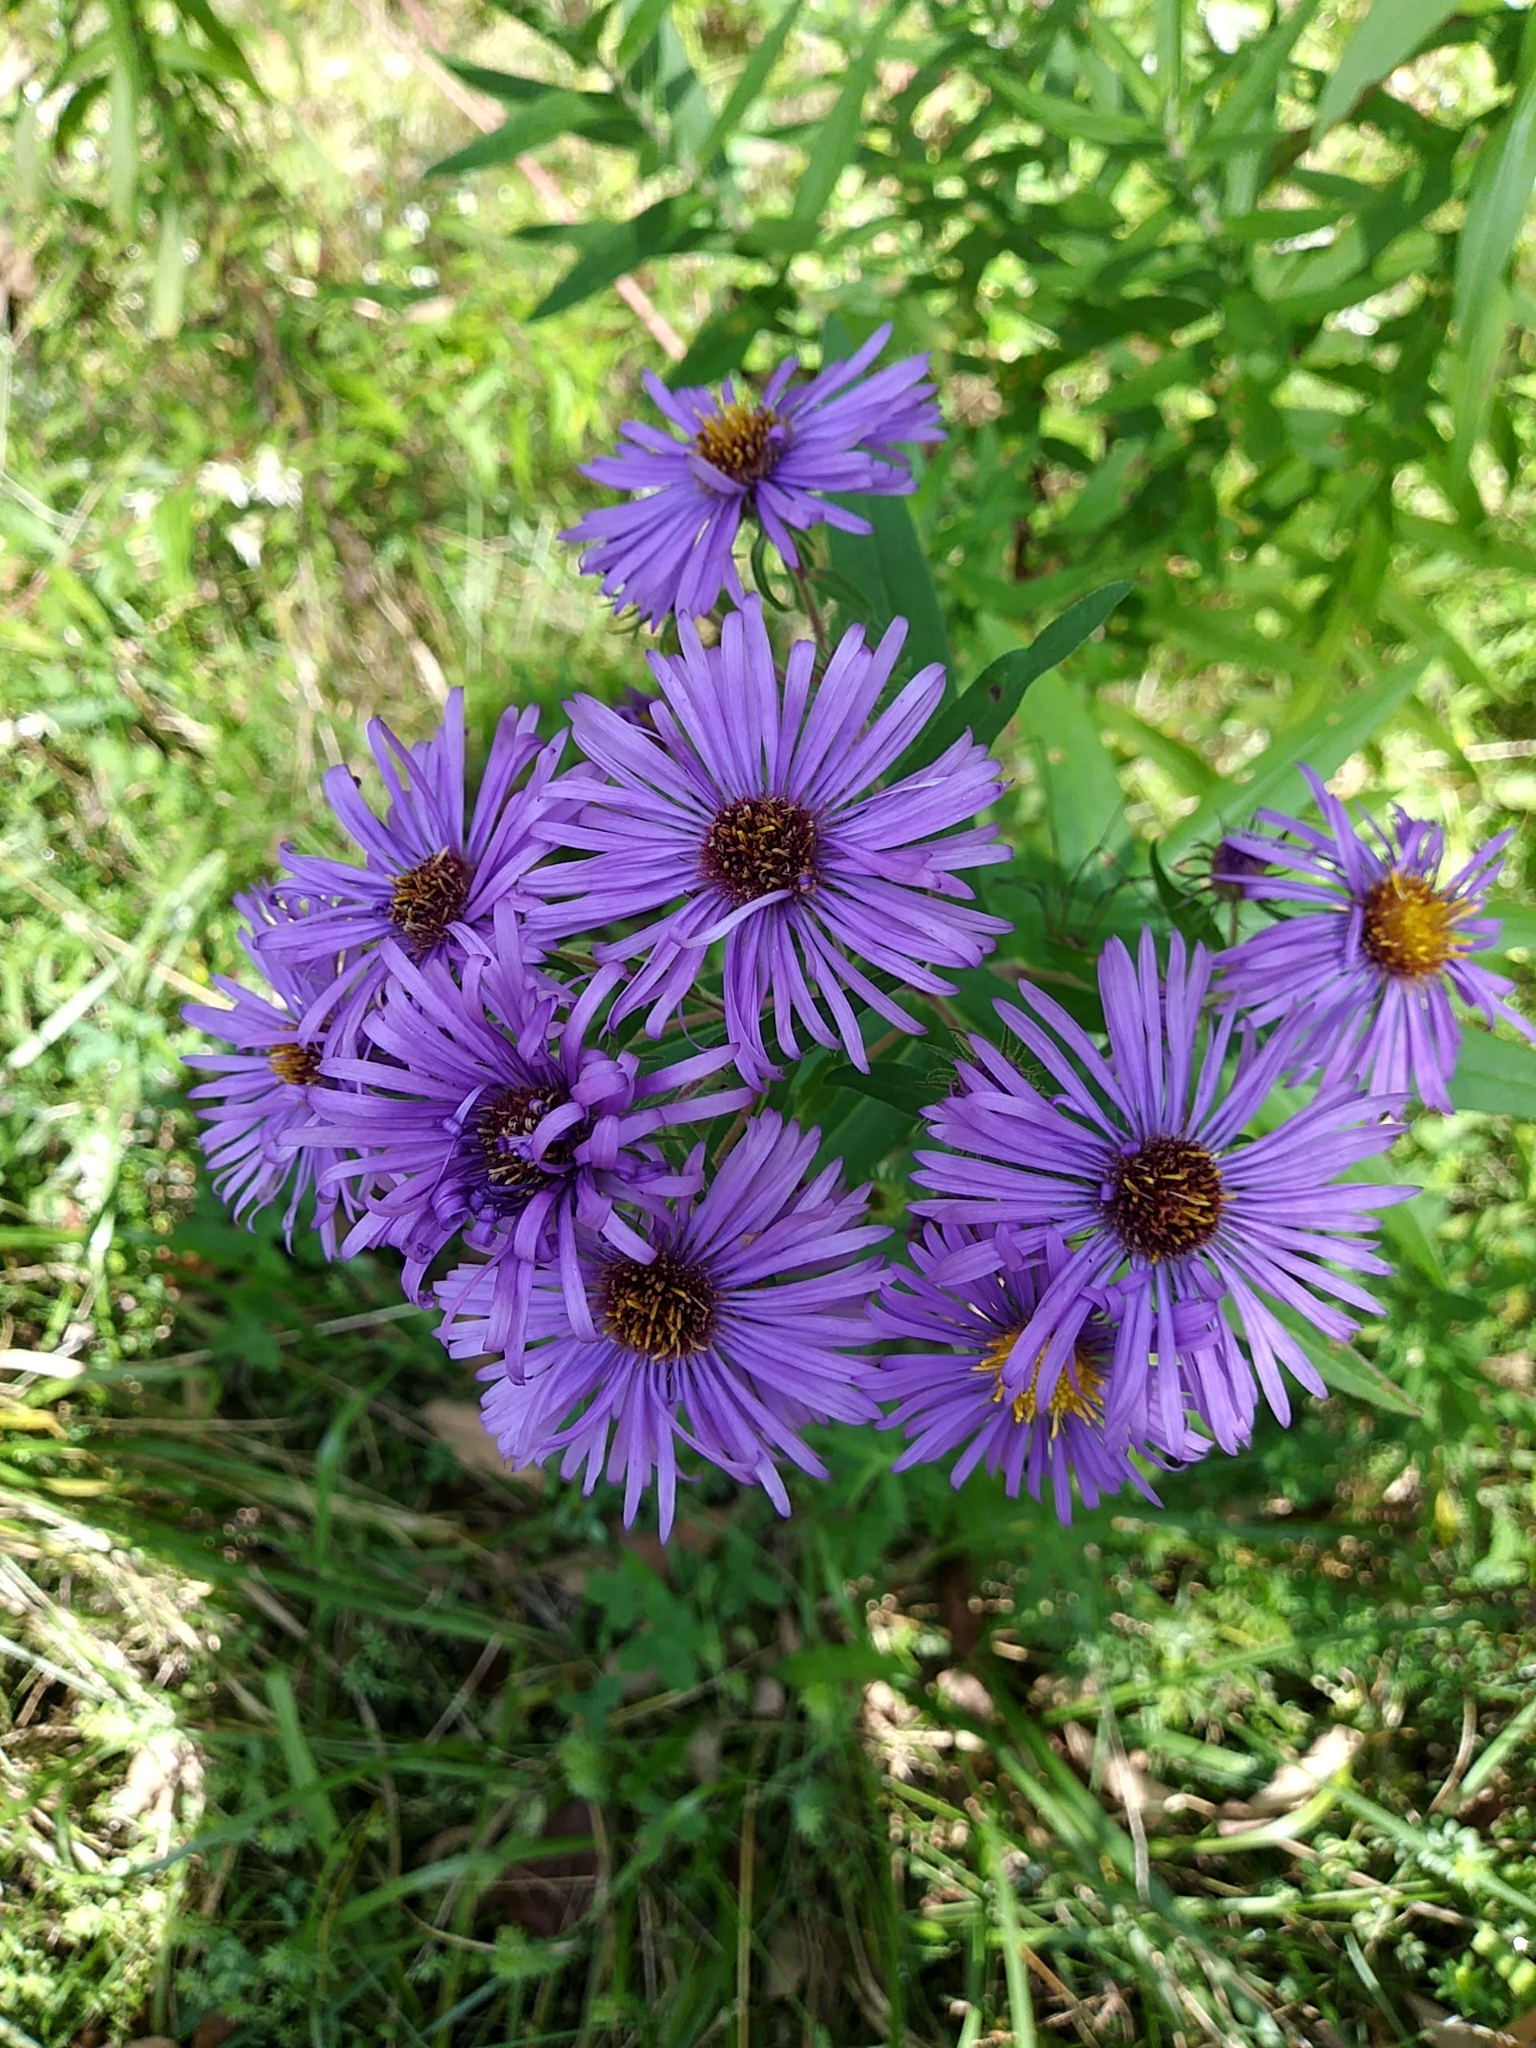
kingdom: Plantae
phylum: Tracheophyta
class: Magnoliopsida
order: Asterales
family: Asteraceae
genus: Symphyotrichum
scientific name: Symphyotrichum novae-angliae
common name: Michaelmas daisy
